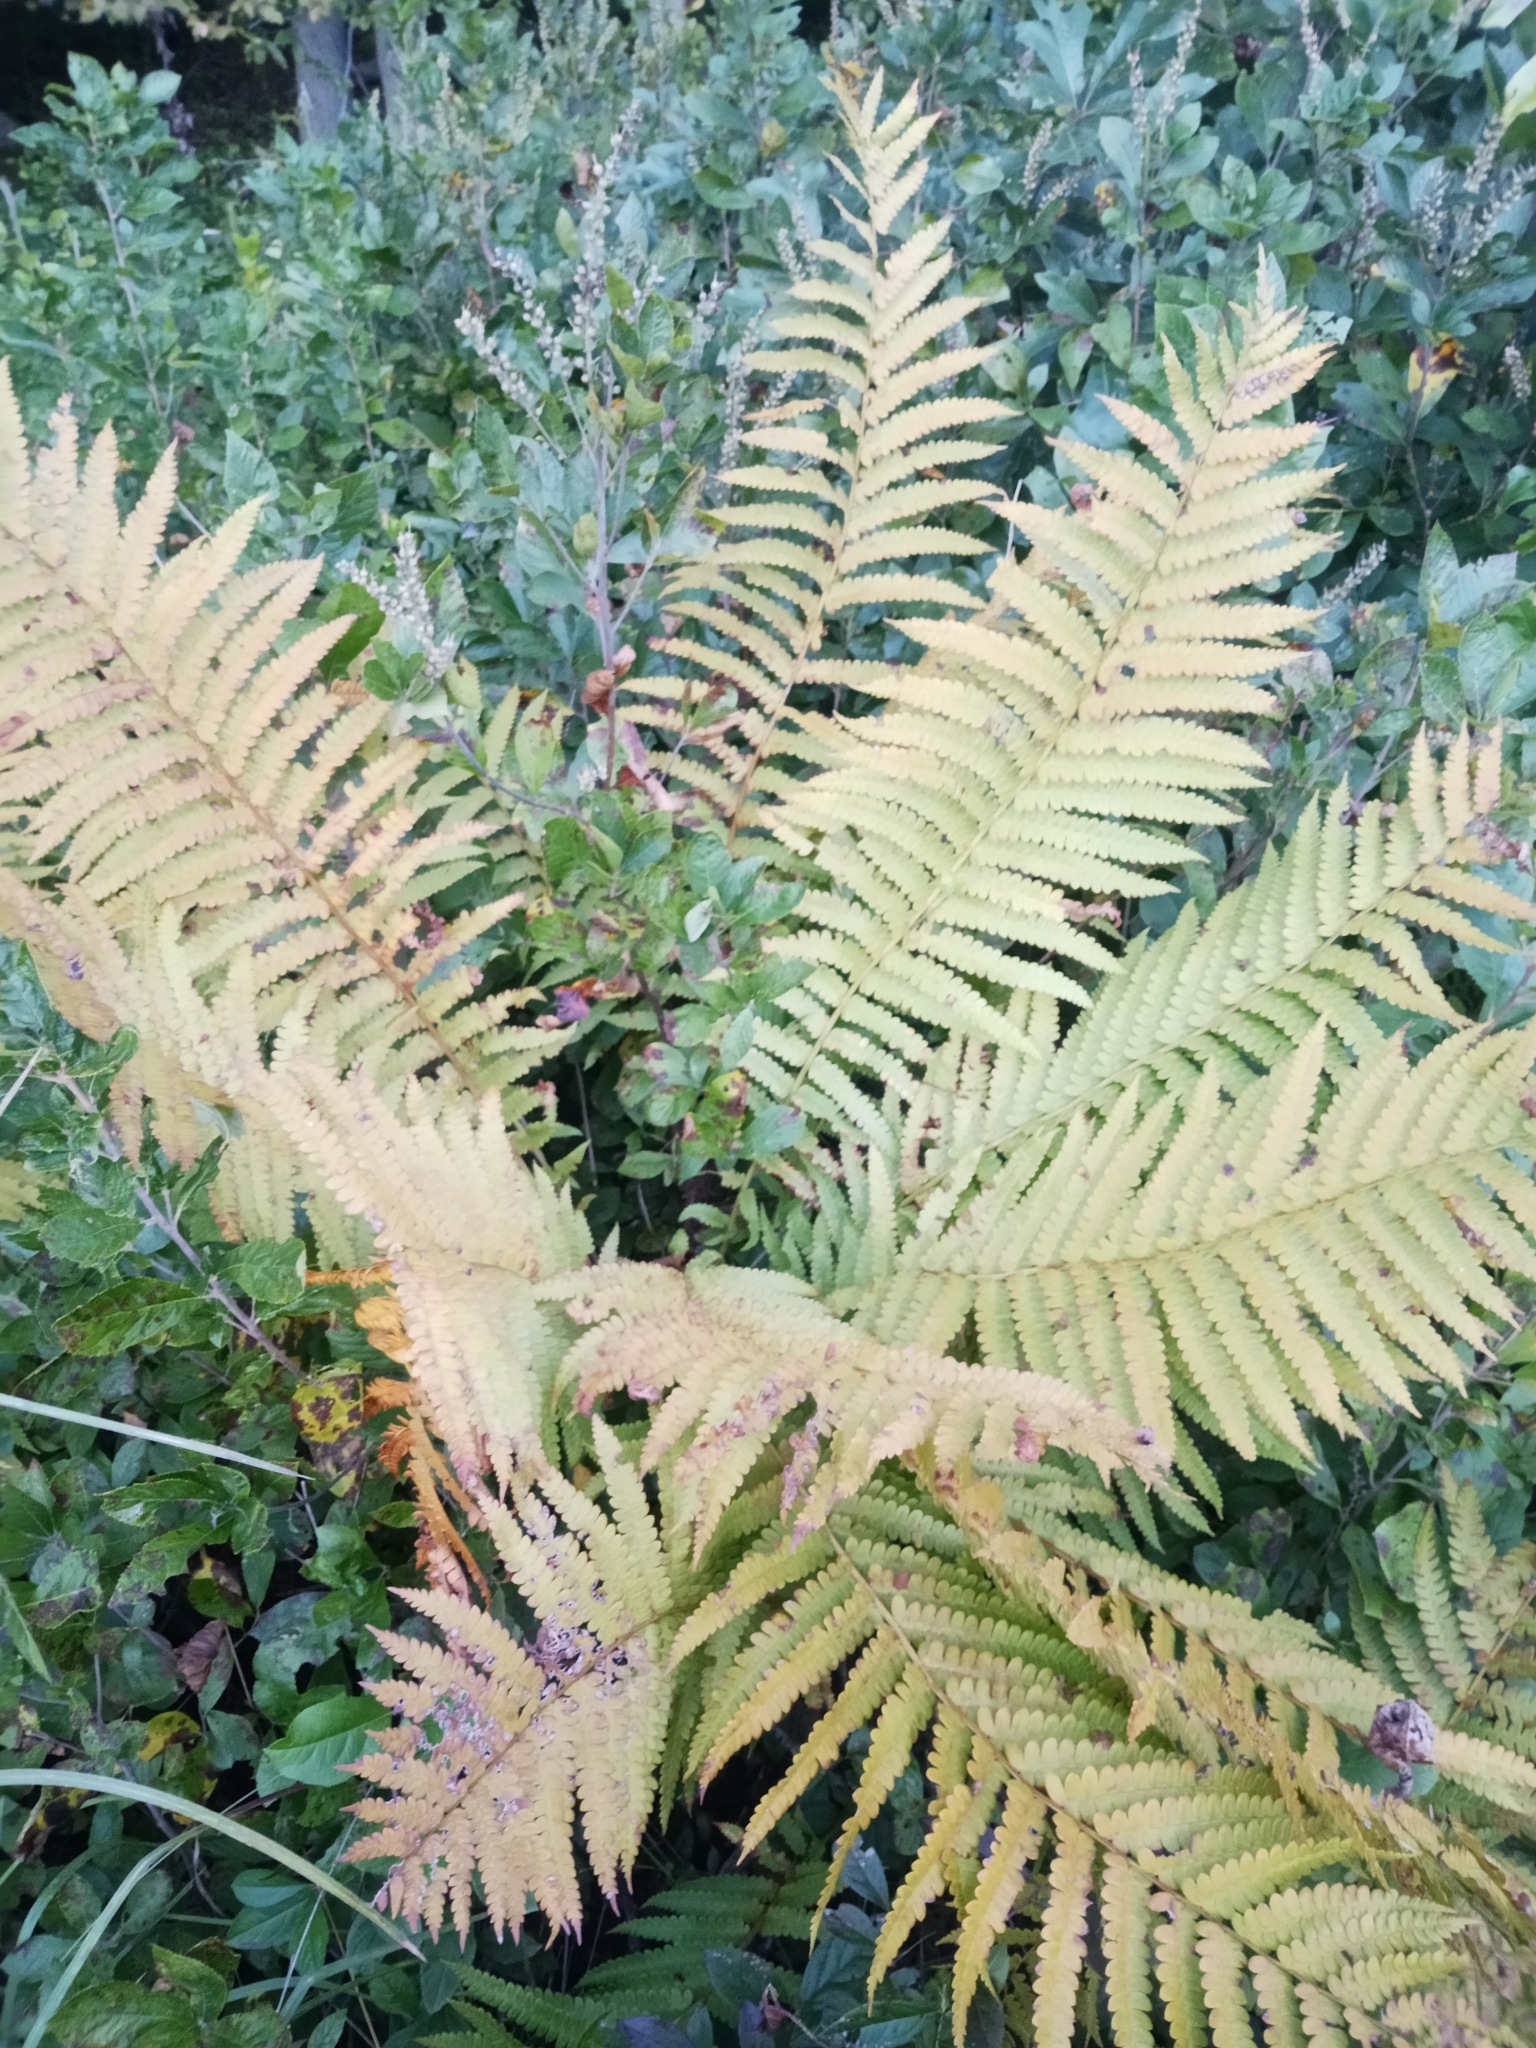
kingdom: Plantae
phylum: Tracheophyta
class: Polypodiopsida
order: Osmundales
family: Osmundaceae
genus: Osmundastrum
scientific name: Osmundastrum cinnamomeum
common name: Cinnamon fern
